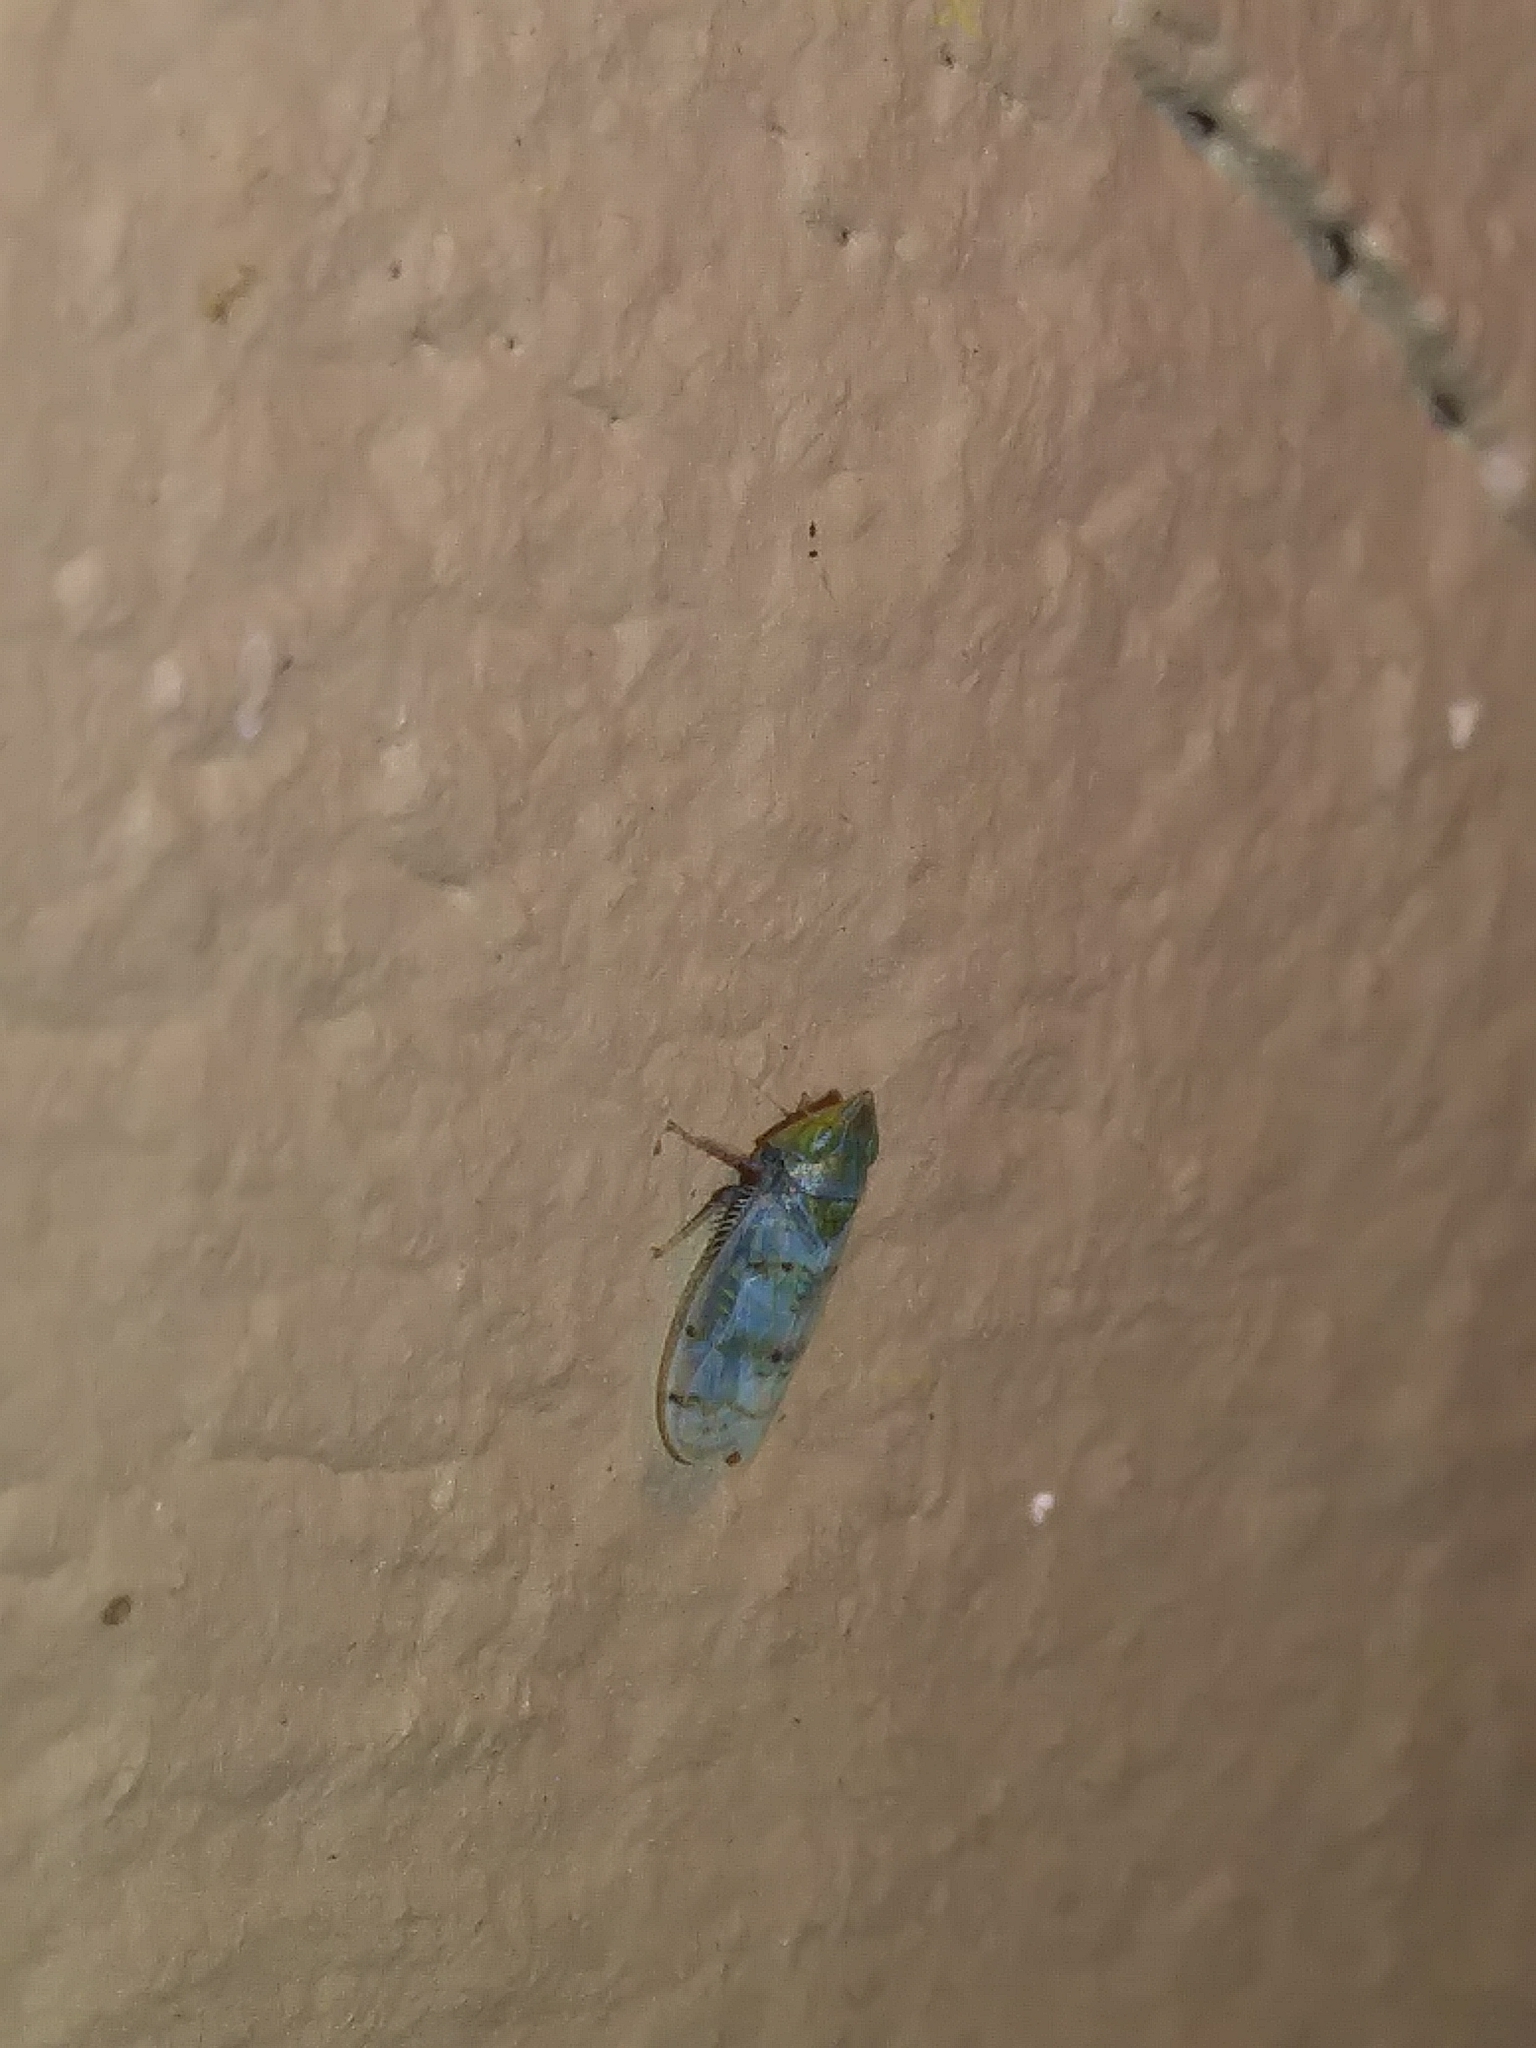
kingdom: Animalia
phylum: Arthropoda
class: Insecta
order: Hemiptera
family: Cicadellidae
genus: Japananus
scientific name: Japananus hyalinus
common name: The japanese maple leafhopper
